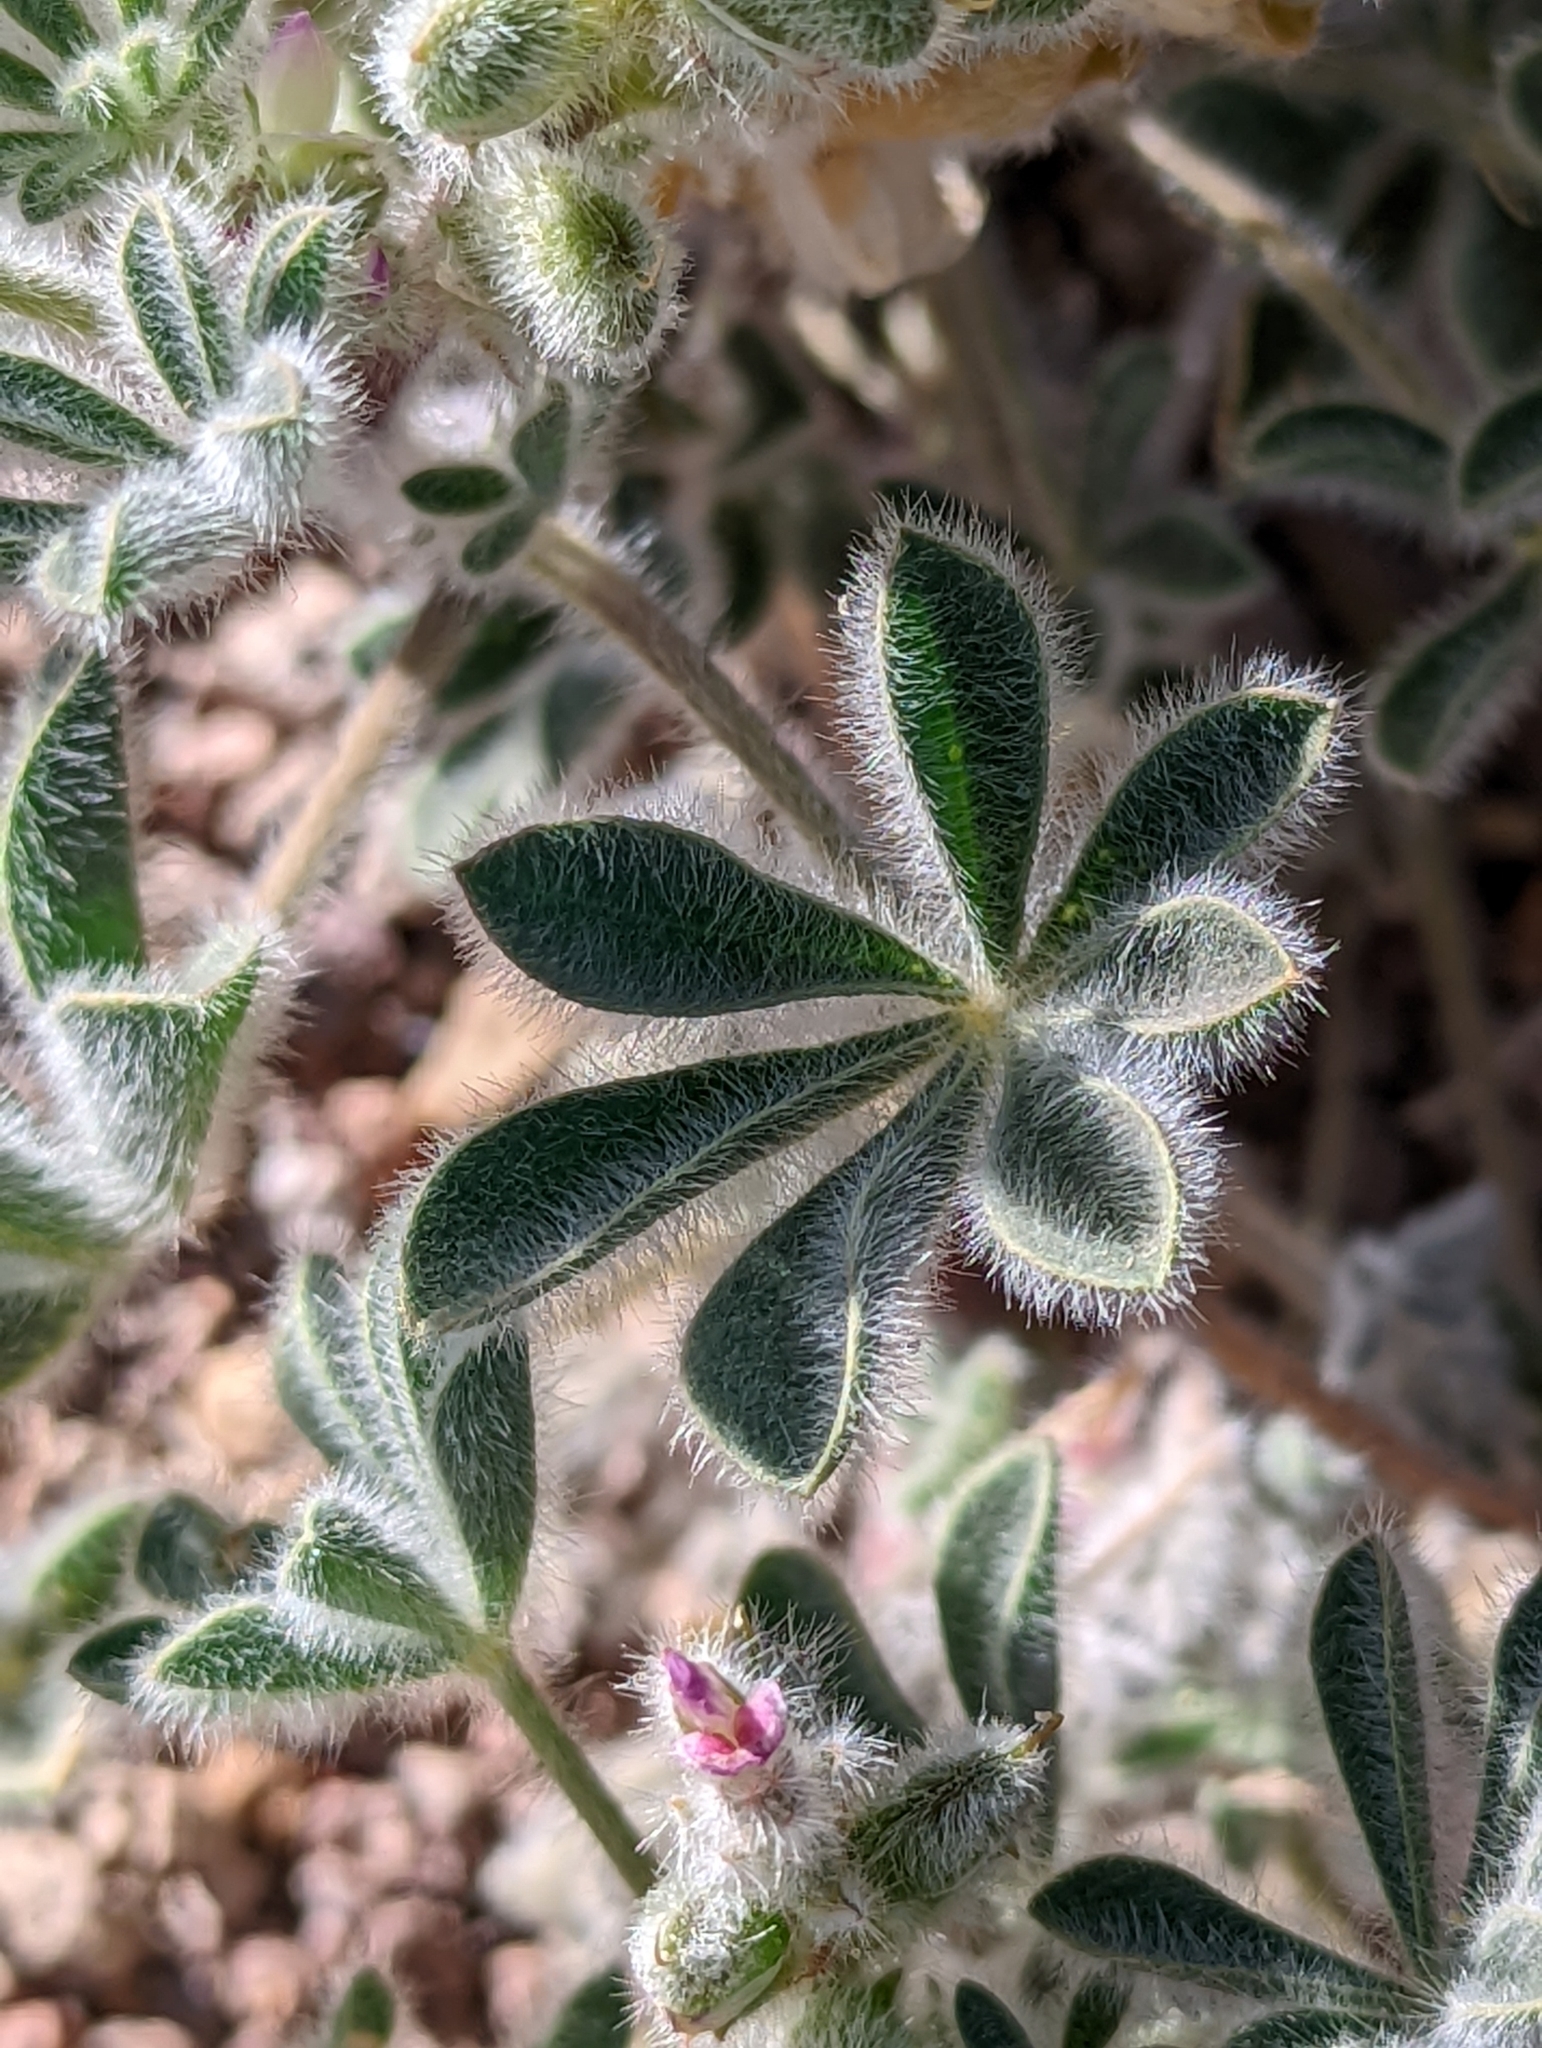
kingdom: Plantae
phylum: Tracheophyta
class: Magnoliopsida
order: Fabales
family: Fabaceae
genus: Lupinus
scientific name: Lupinus concinnus
